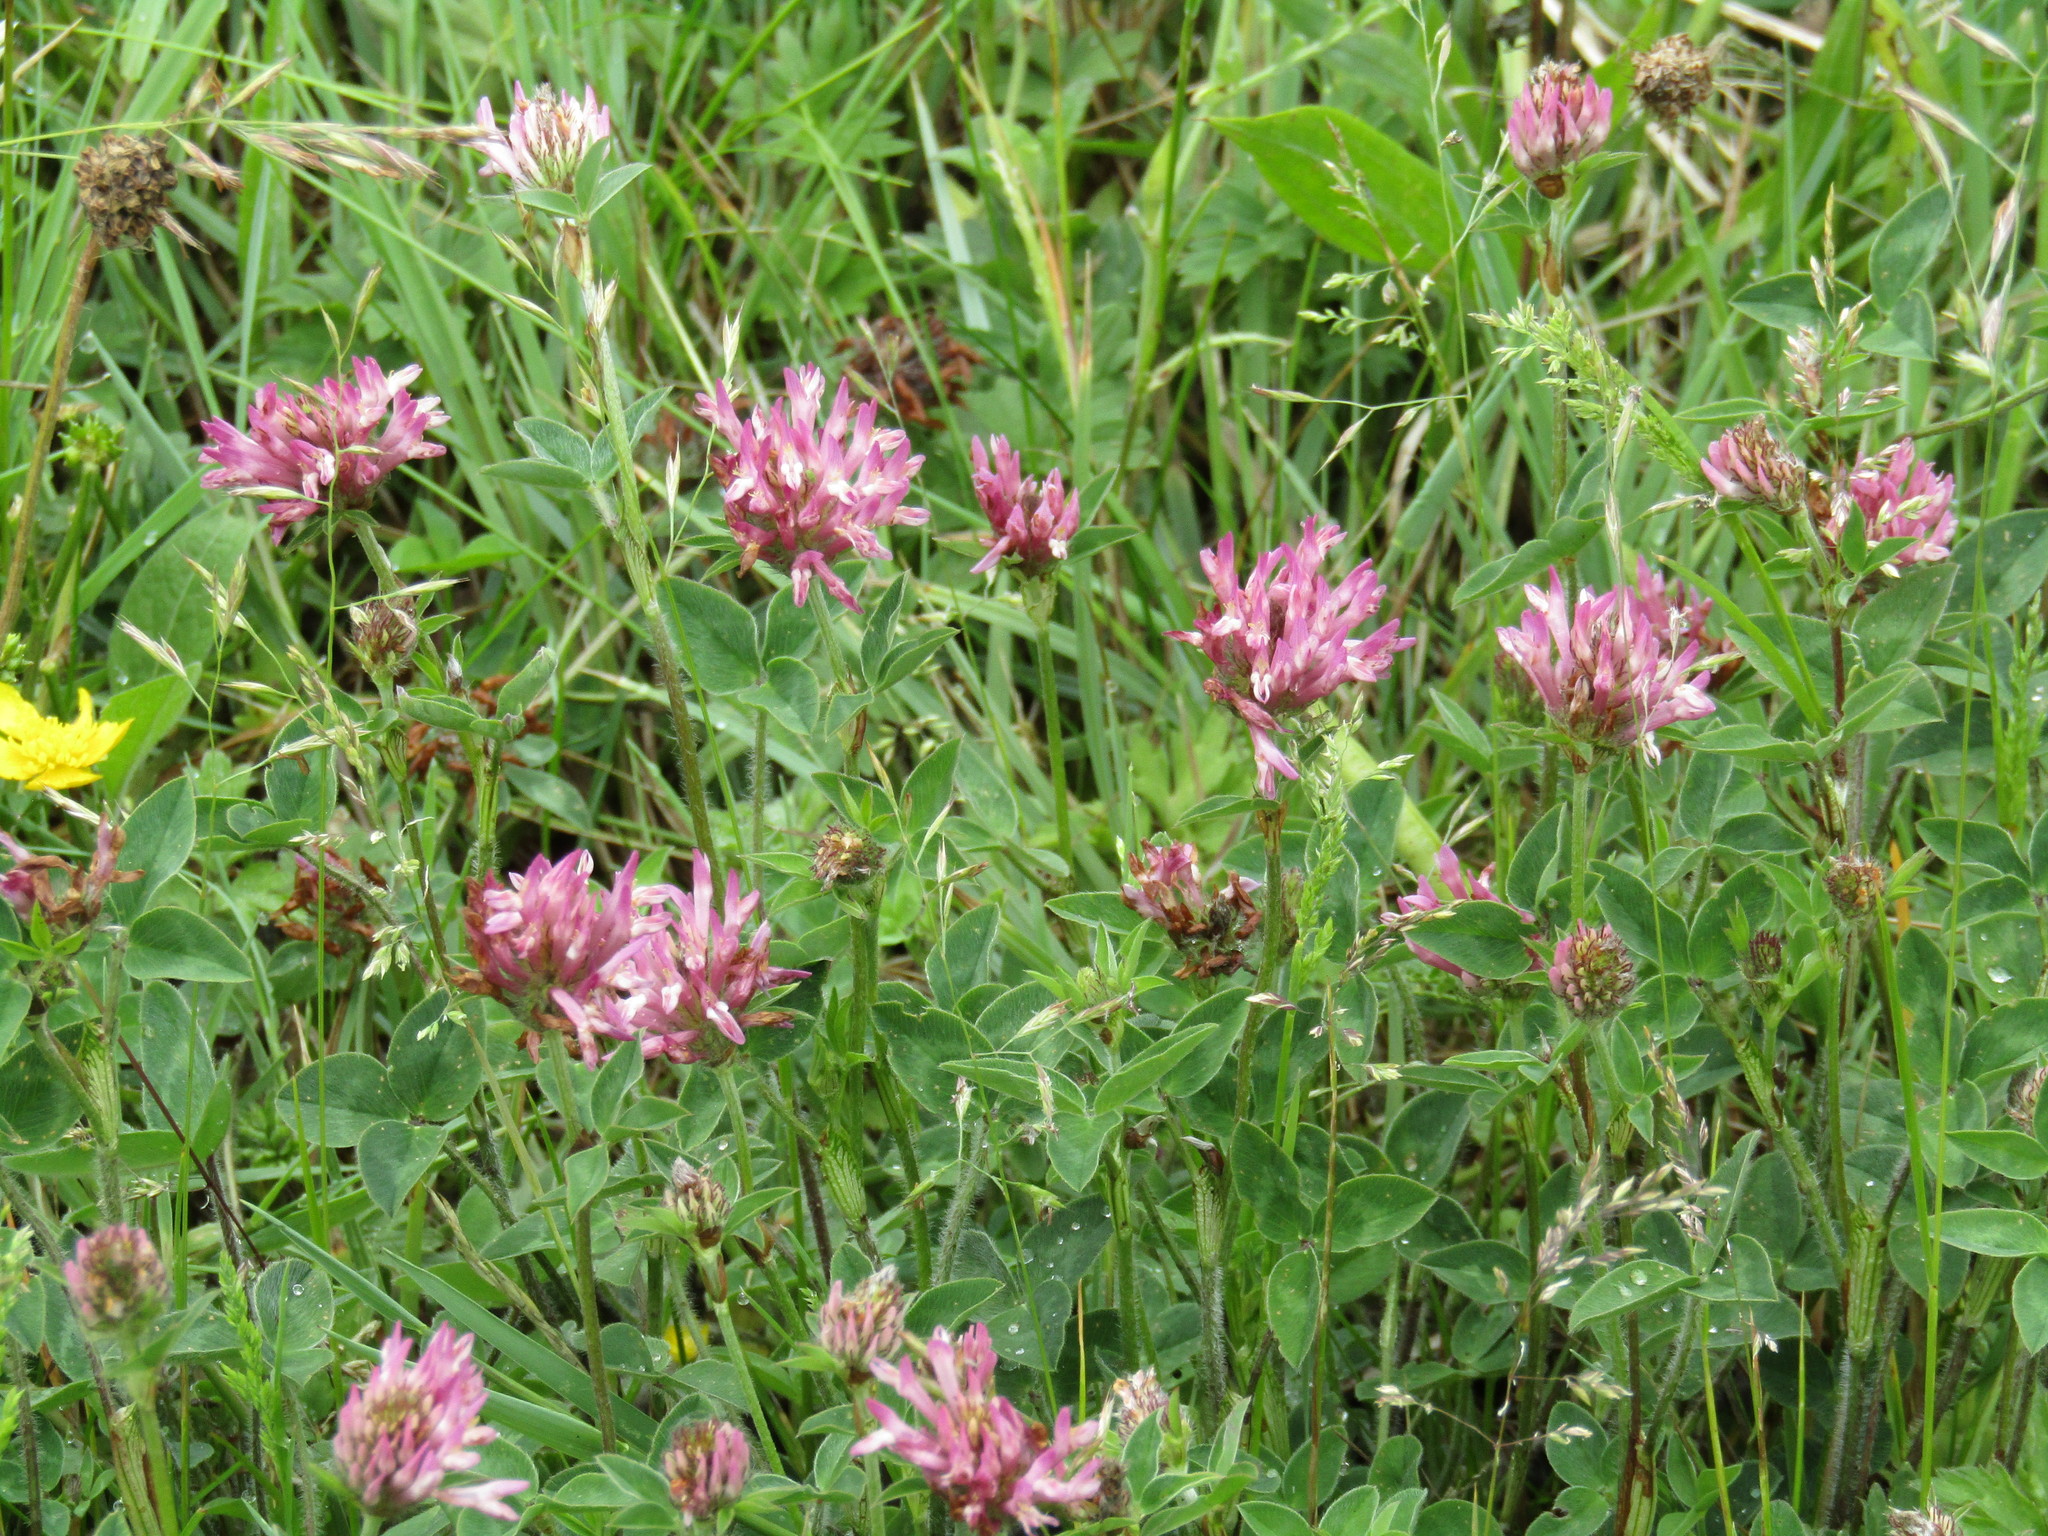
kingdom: Plantae
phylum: Tracheophyta
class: Magnoliopsida
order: Fabales
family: Fabaceae
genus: Trifolium
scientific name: Trifolium pratense
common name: Red clover
